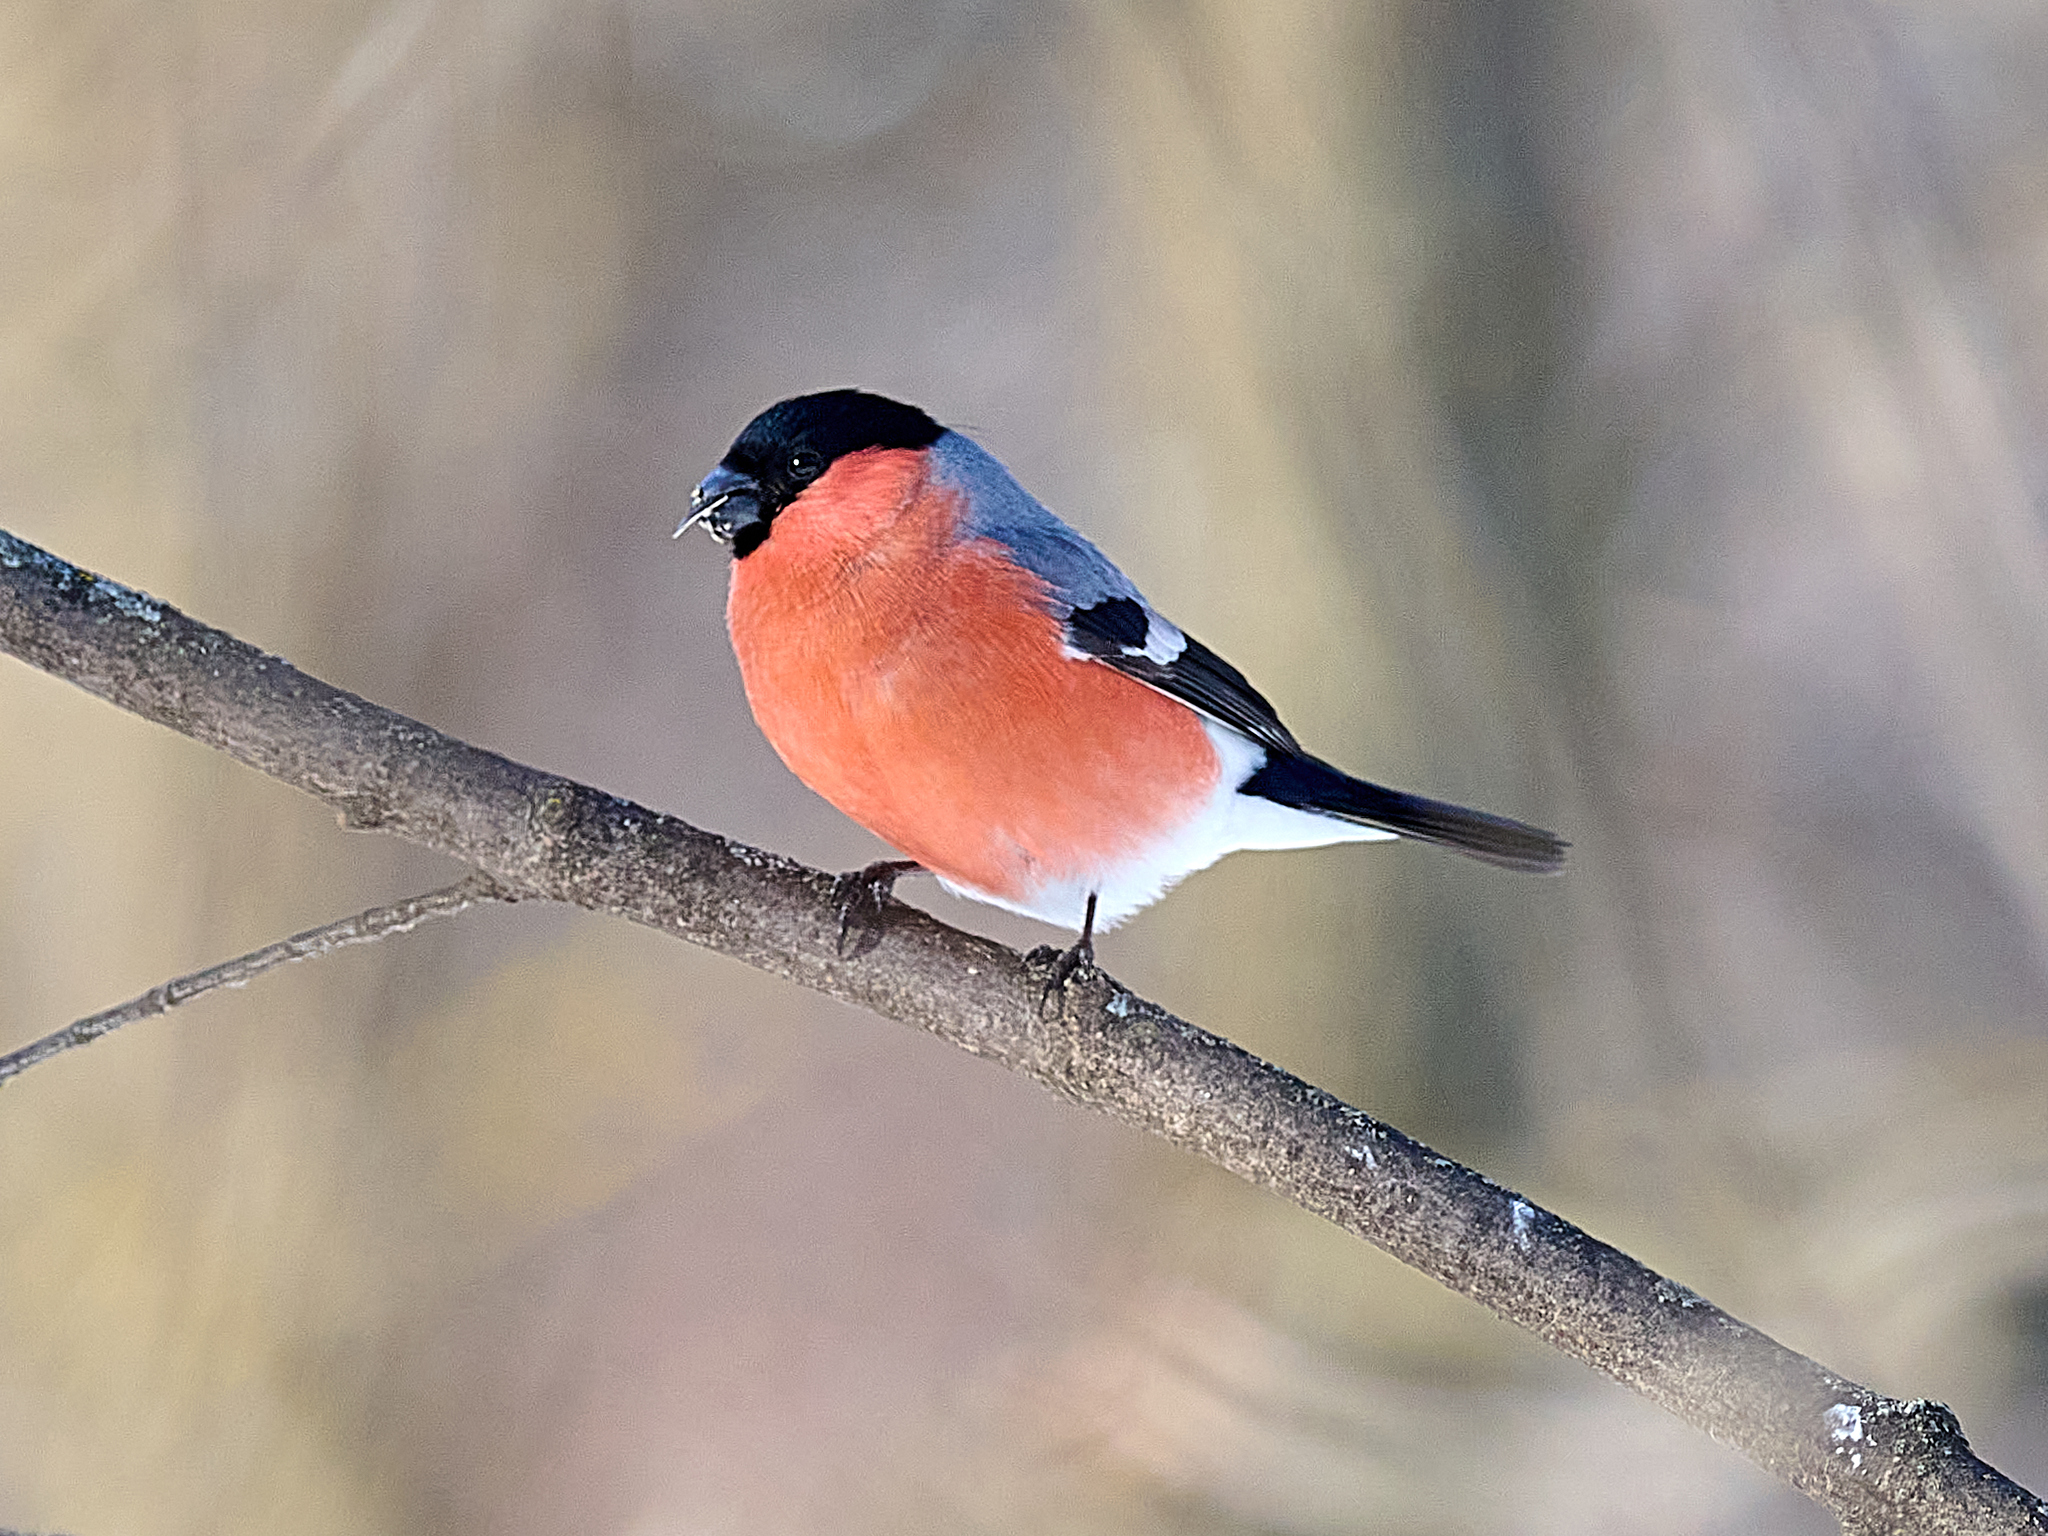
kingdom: Animalia
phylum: Chordata
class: Aves
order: Passeriformes
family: Fringillidae
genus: Pyrrhula
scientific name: Pyrrhula pyrrhula
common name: Eurasian bullfinch
